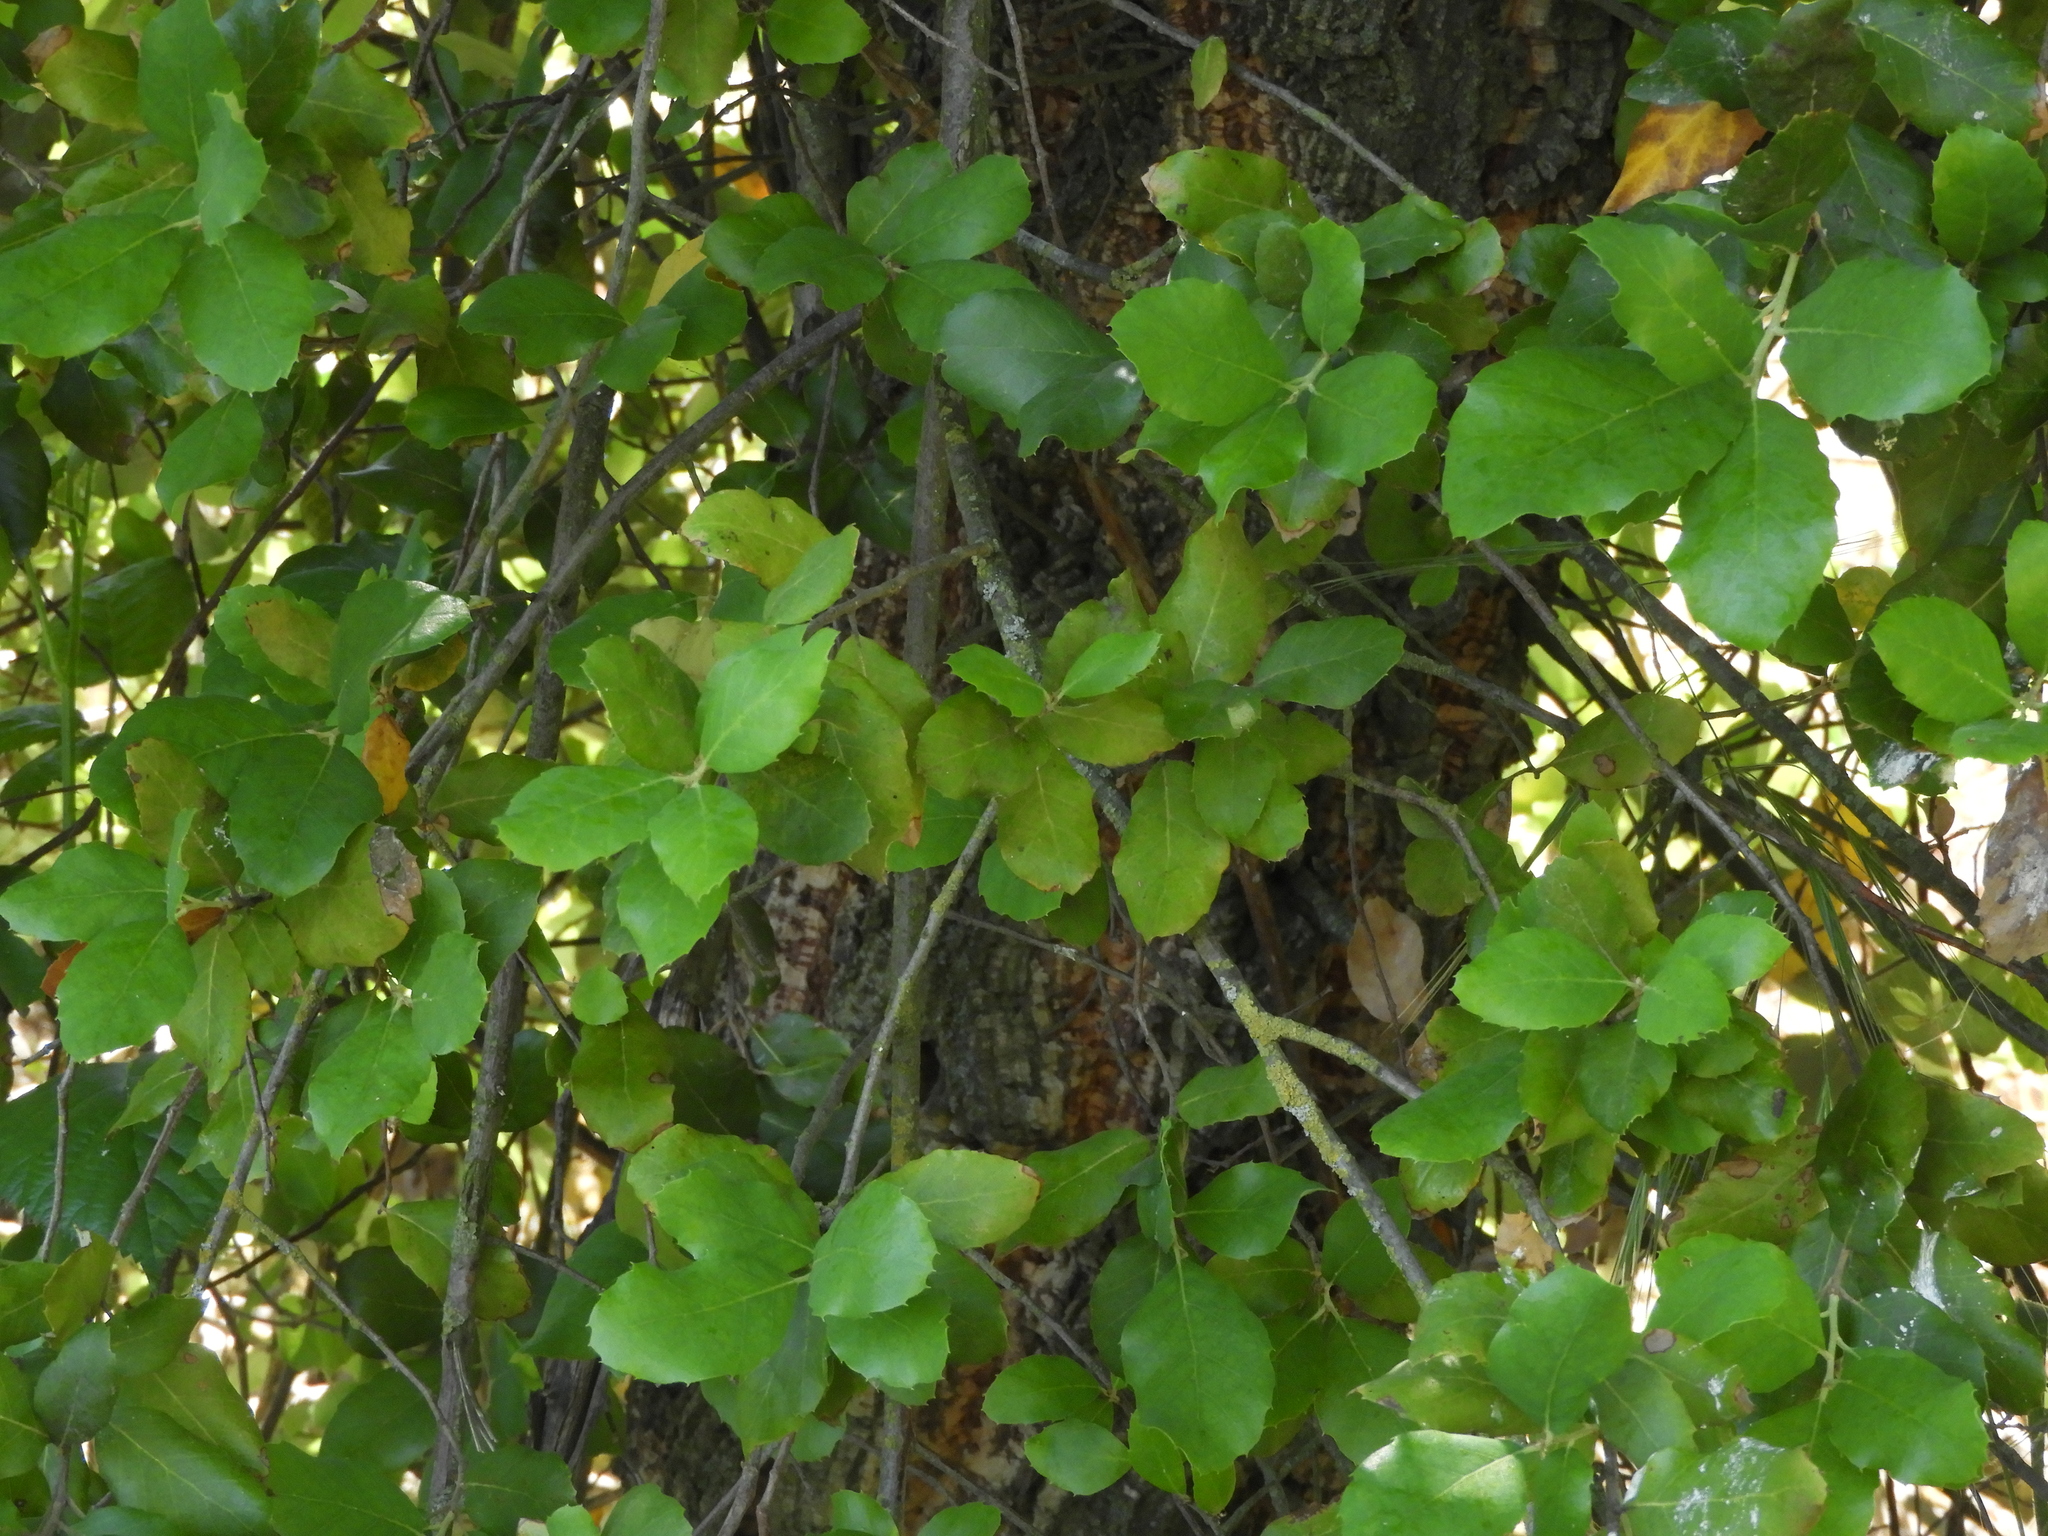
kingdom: Plantae
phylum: Tracheophyta
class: Magnoliopsida
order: Fagales
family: Fagaceae
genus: Quercus
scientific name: Quercus suber
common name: Cork oak
